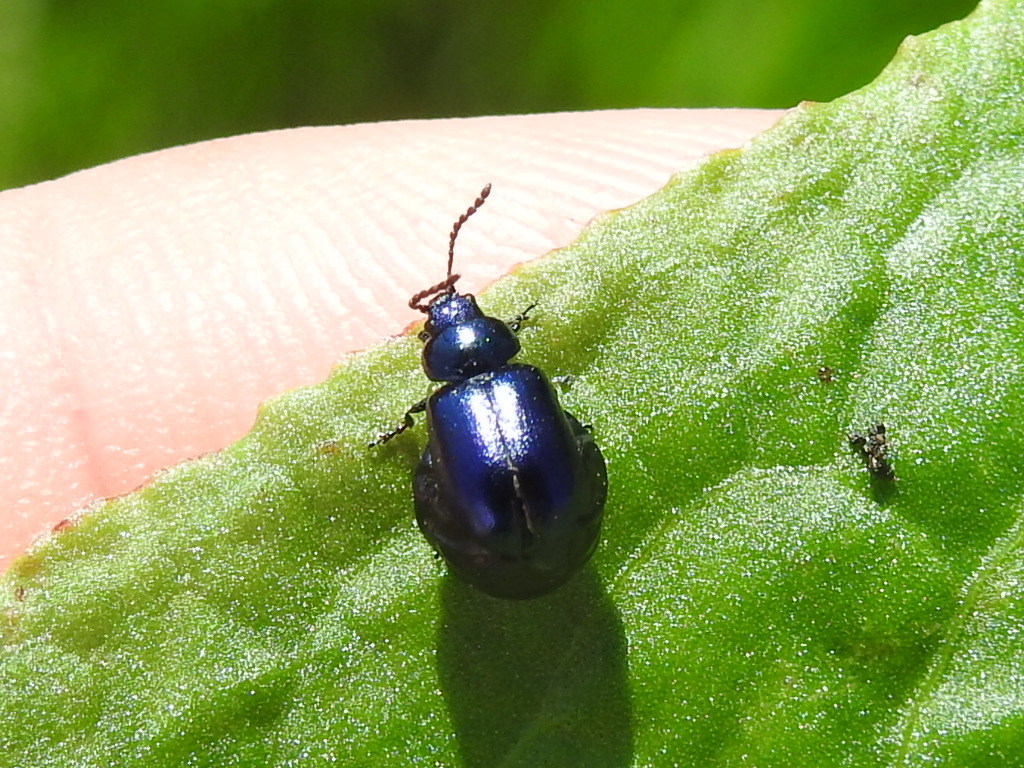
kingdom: Animalia
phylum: Arthropoda
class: Insecta
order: Coleoptera
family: Chrysomelidae
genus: Gastrophysa
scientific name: Gastrophysa cyanea
